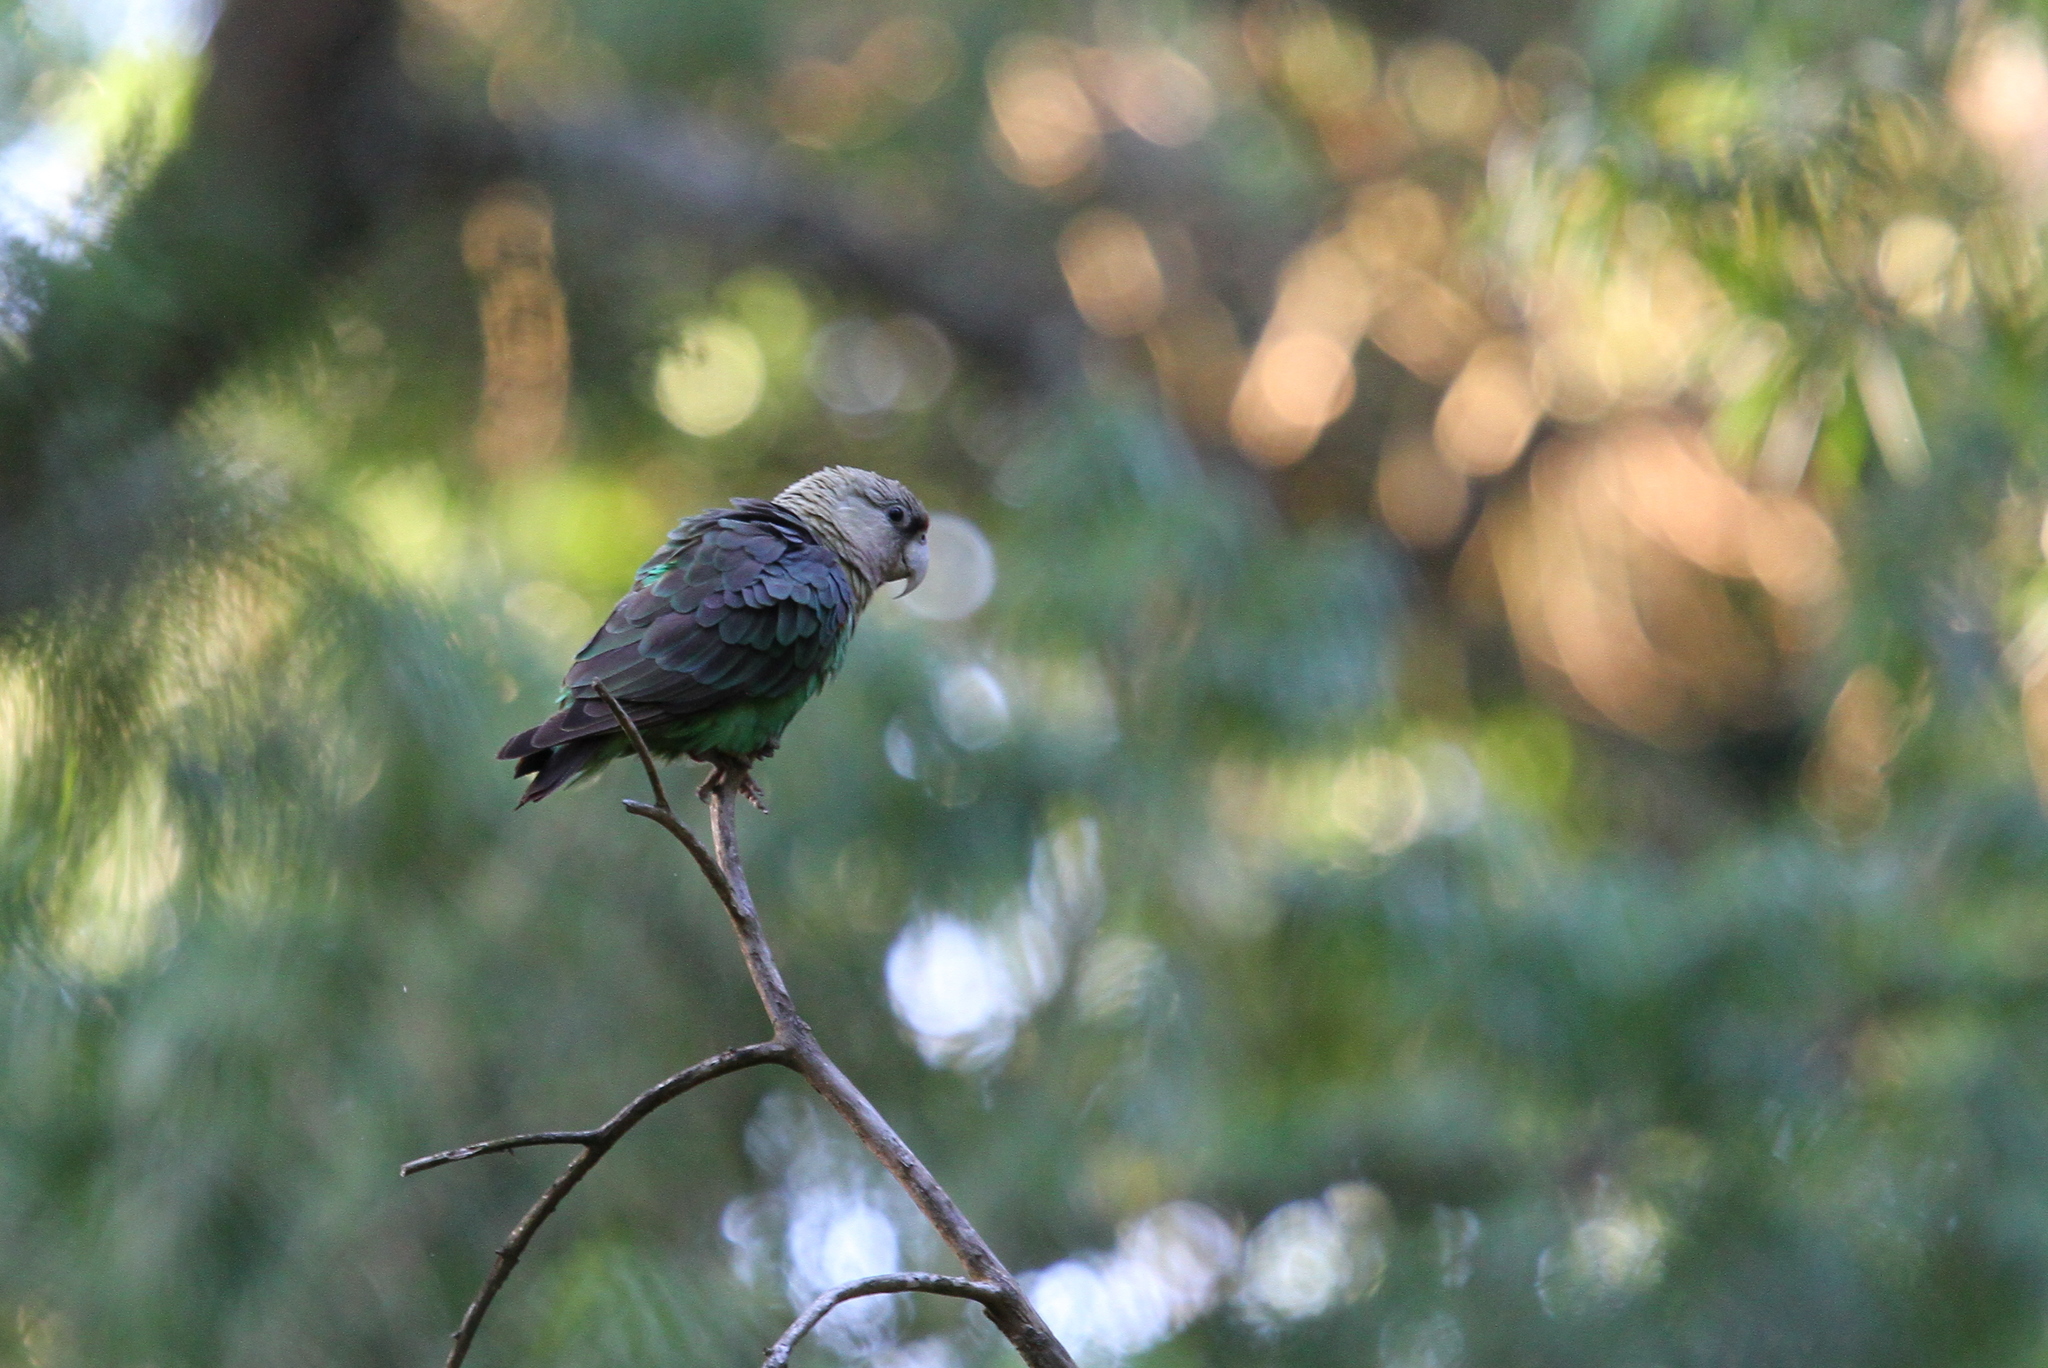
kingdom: Animalia
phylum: Chordata
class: Aves
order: Psittaciformes
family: Psittacidae
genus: Poicephalus
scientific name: Poicephalus robustus
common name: Cape parrot
